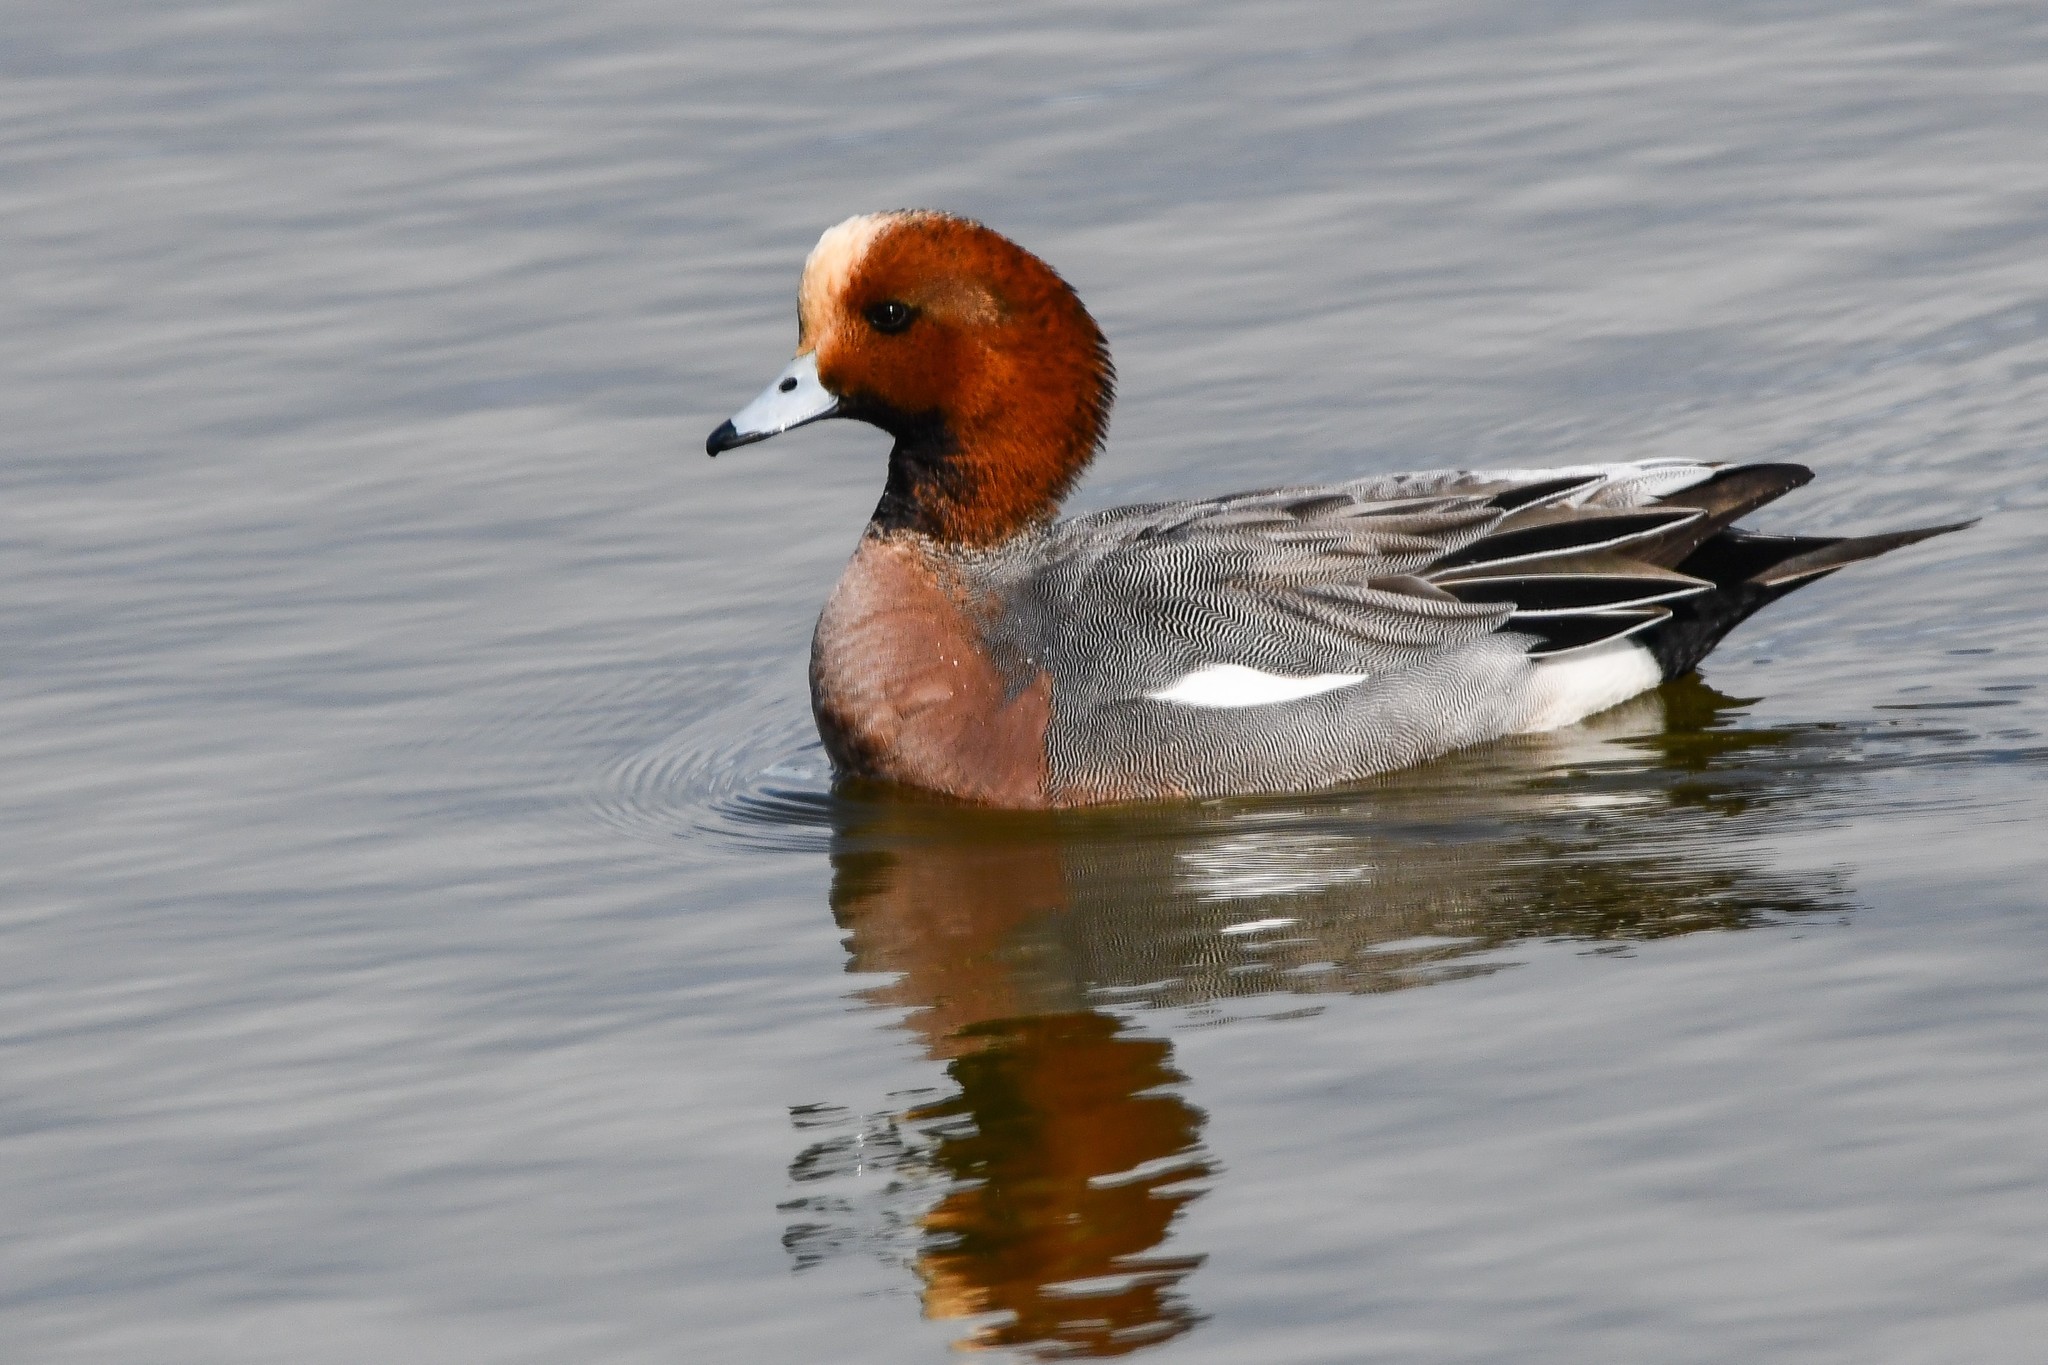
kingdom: Animalia
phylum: Chordata
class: Aves
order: Anseriformes
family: Anatidae
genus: Mareca
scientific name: Mareca penelope
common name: Eurasian wigeon
